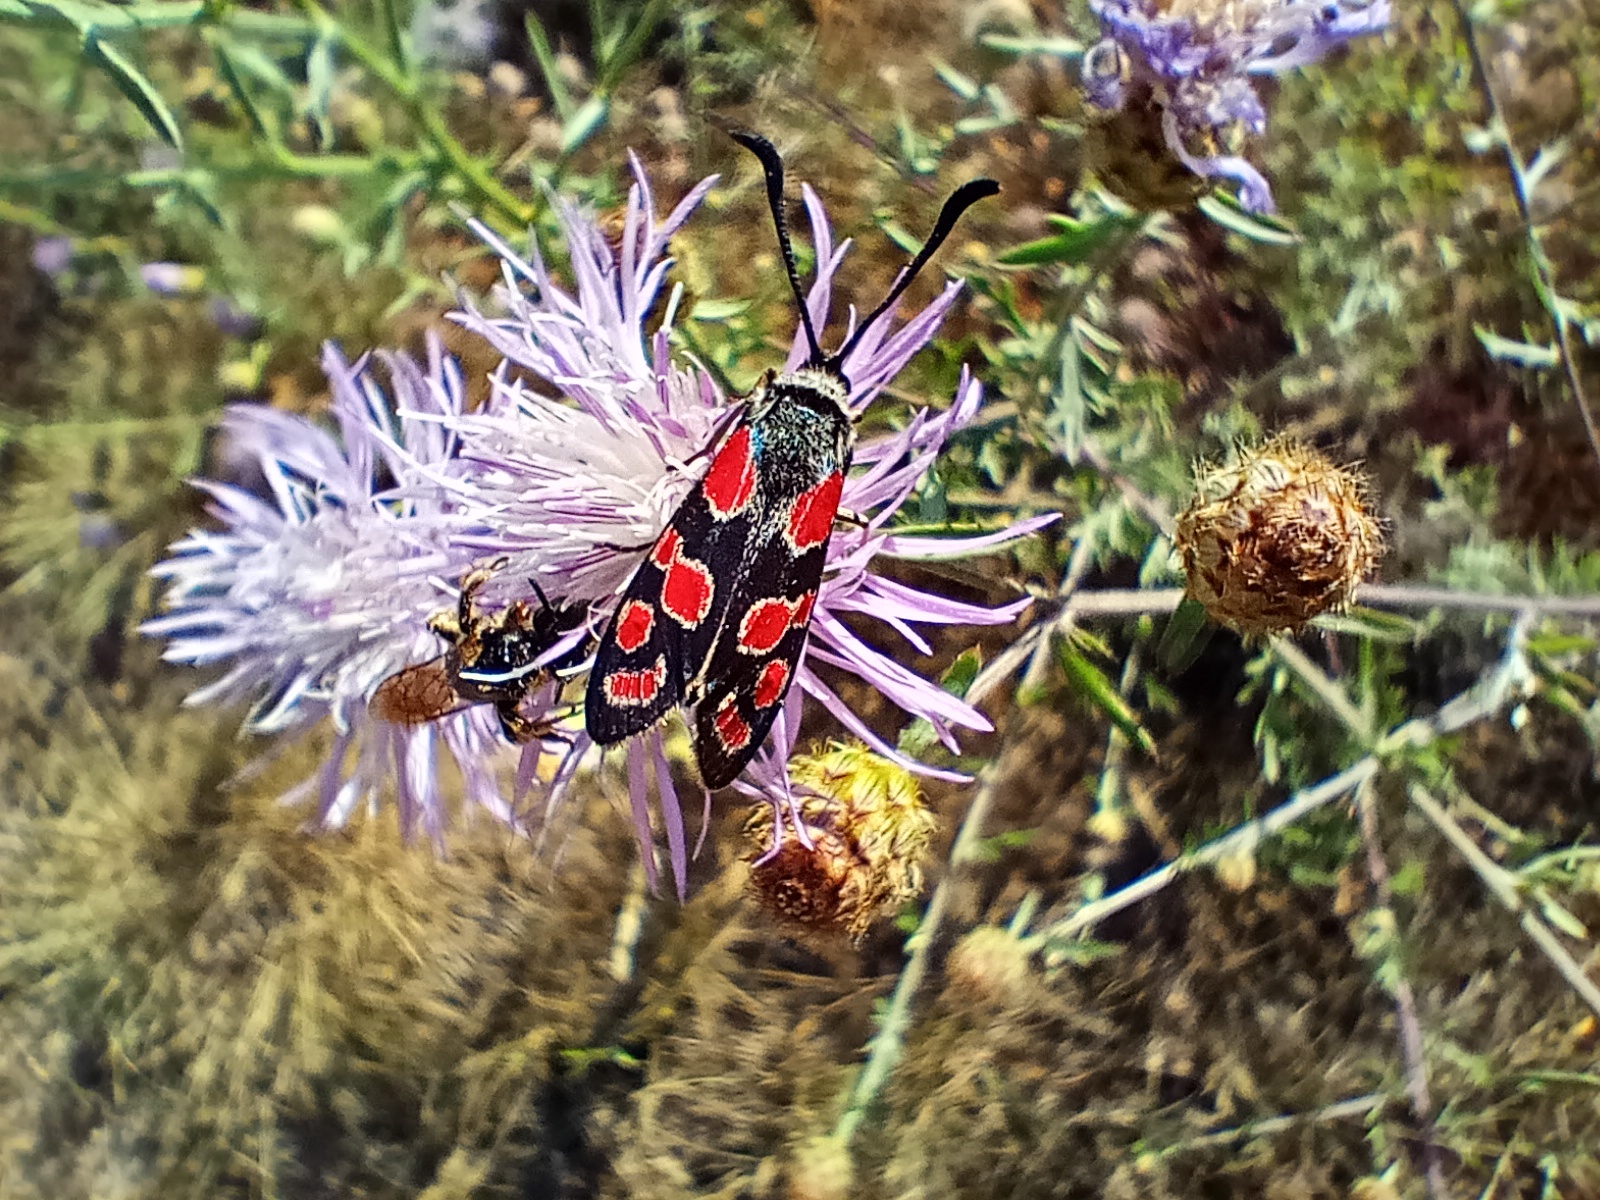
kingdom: Animalia
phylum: Arthropoda
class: Insecta
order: Lepidoptera
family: Zygaenidae
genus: Zygaena
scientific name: Zygaena carniolica
